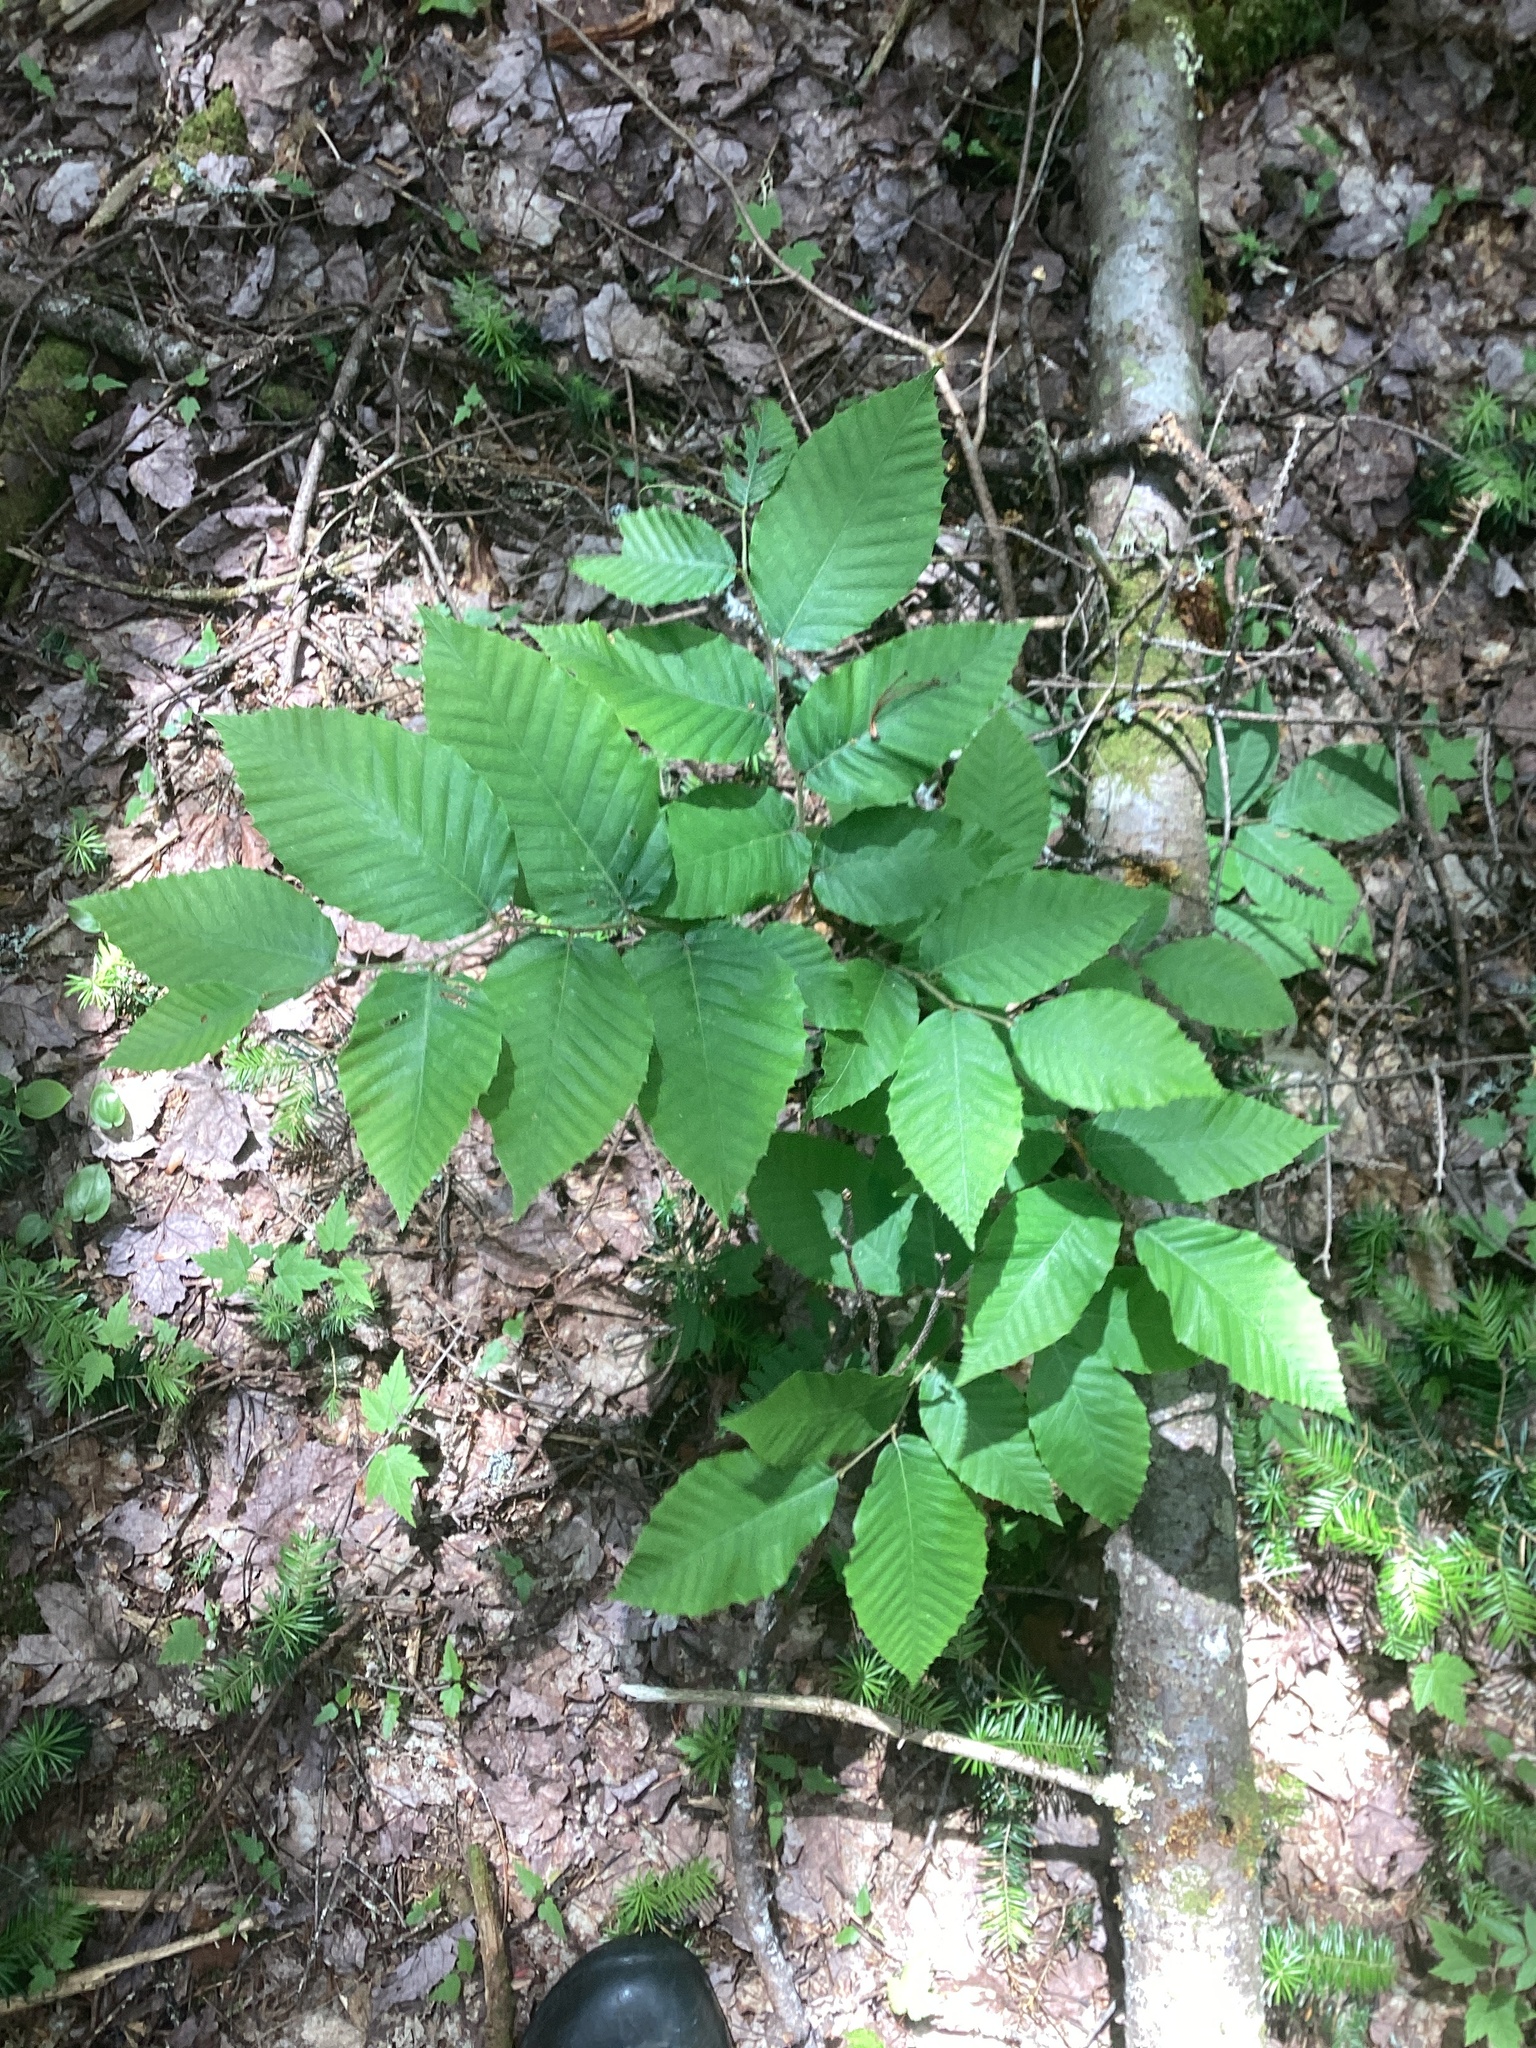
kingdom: Plantae
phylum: Tracheophyta
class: Magnoliopsida
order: Fagales
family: Fagaceae
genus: Fagus
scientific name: Fagus grandifolia
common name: American beech
